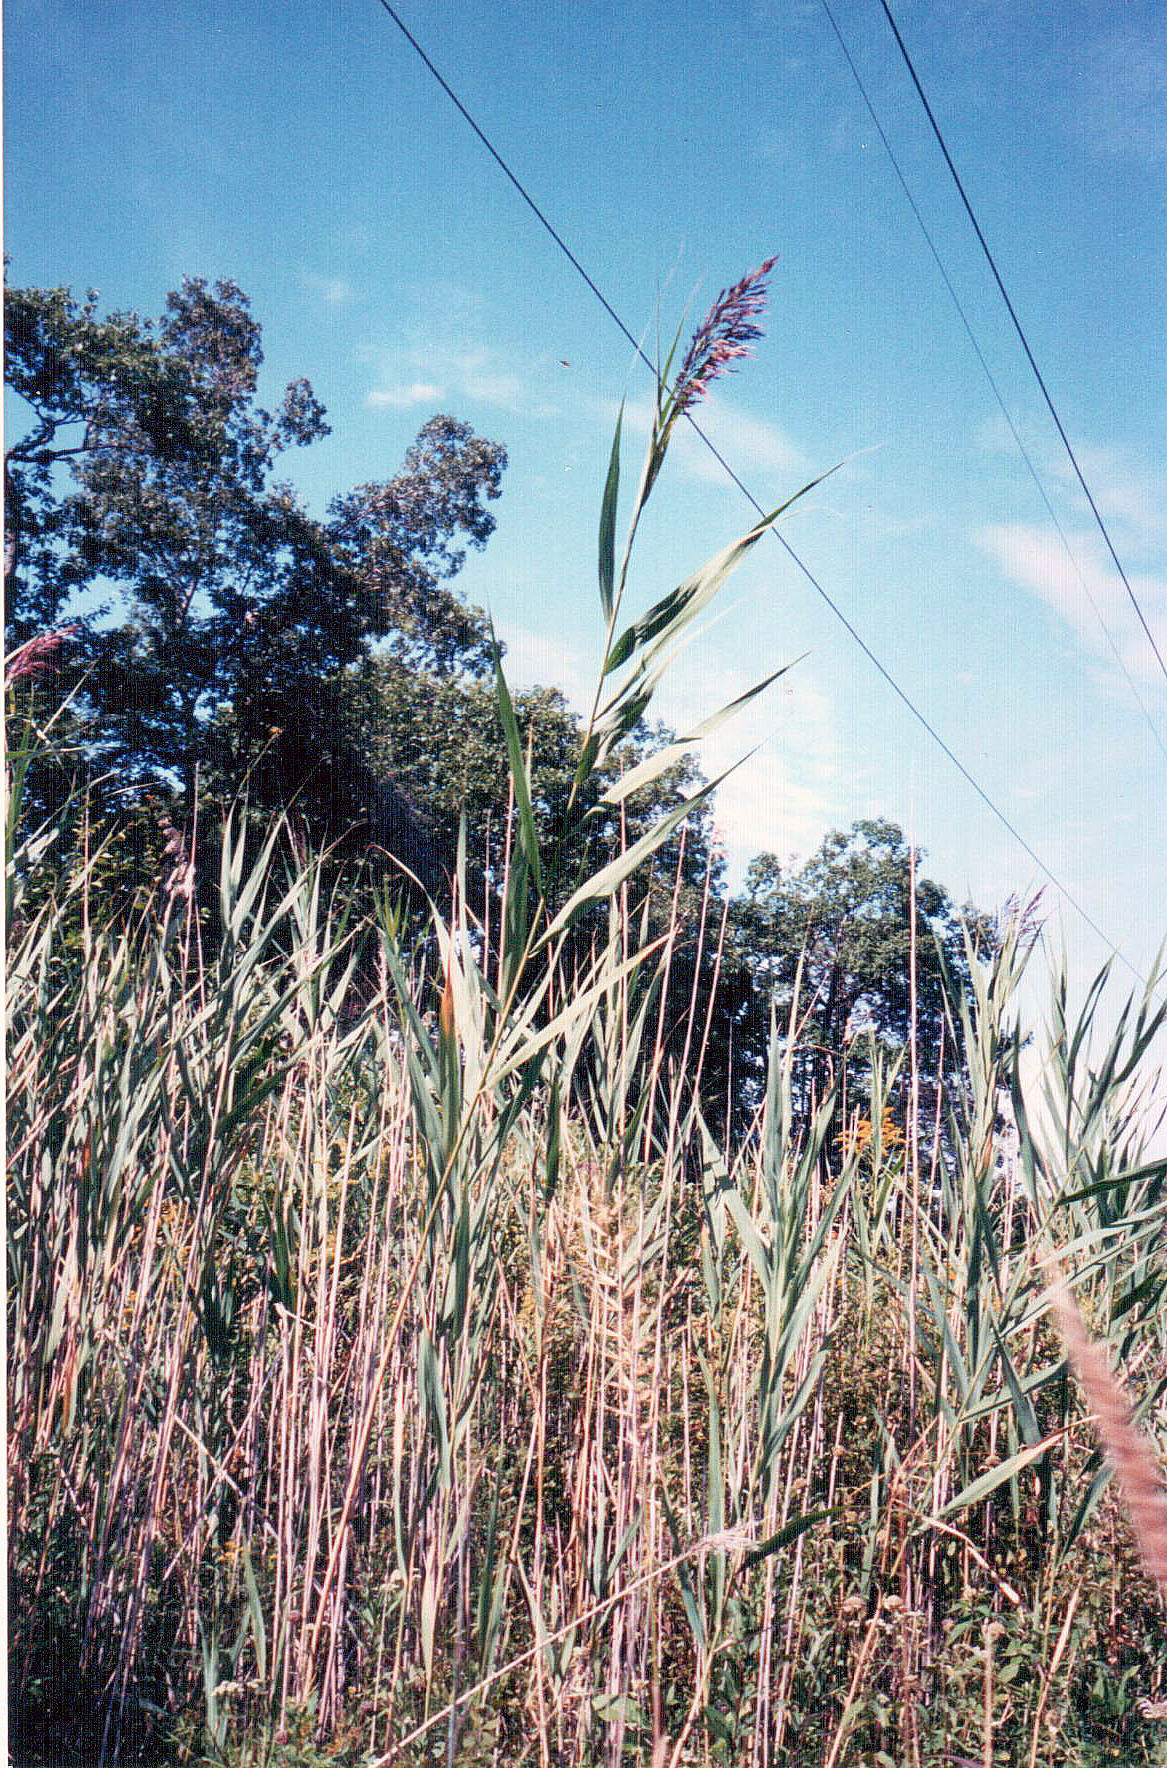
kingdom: Plantae
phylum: Tracheophyta
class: Liliopsida
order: Poales
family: Poaceae
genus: Phragmites
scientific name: Phragmites australis
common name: Common reed
